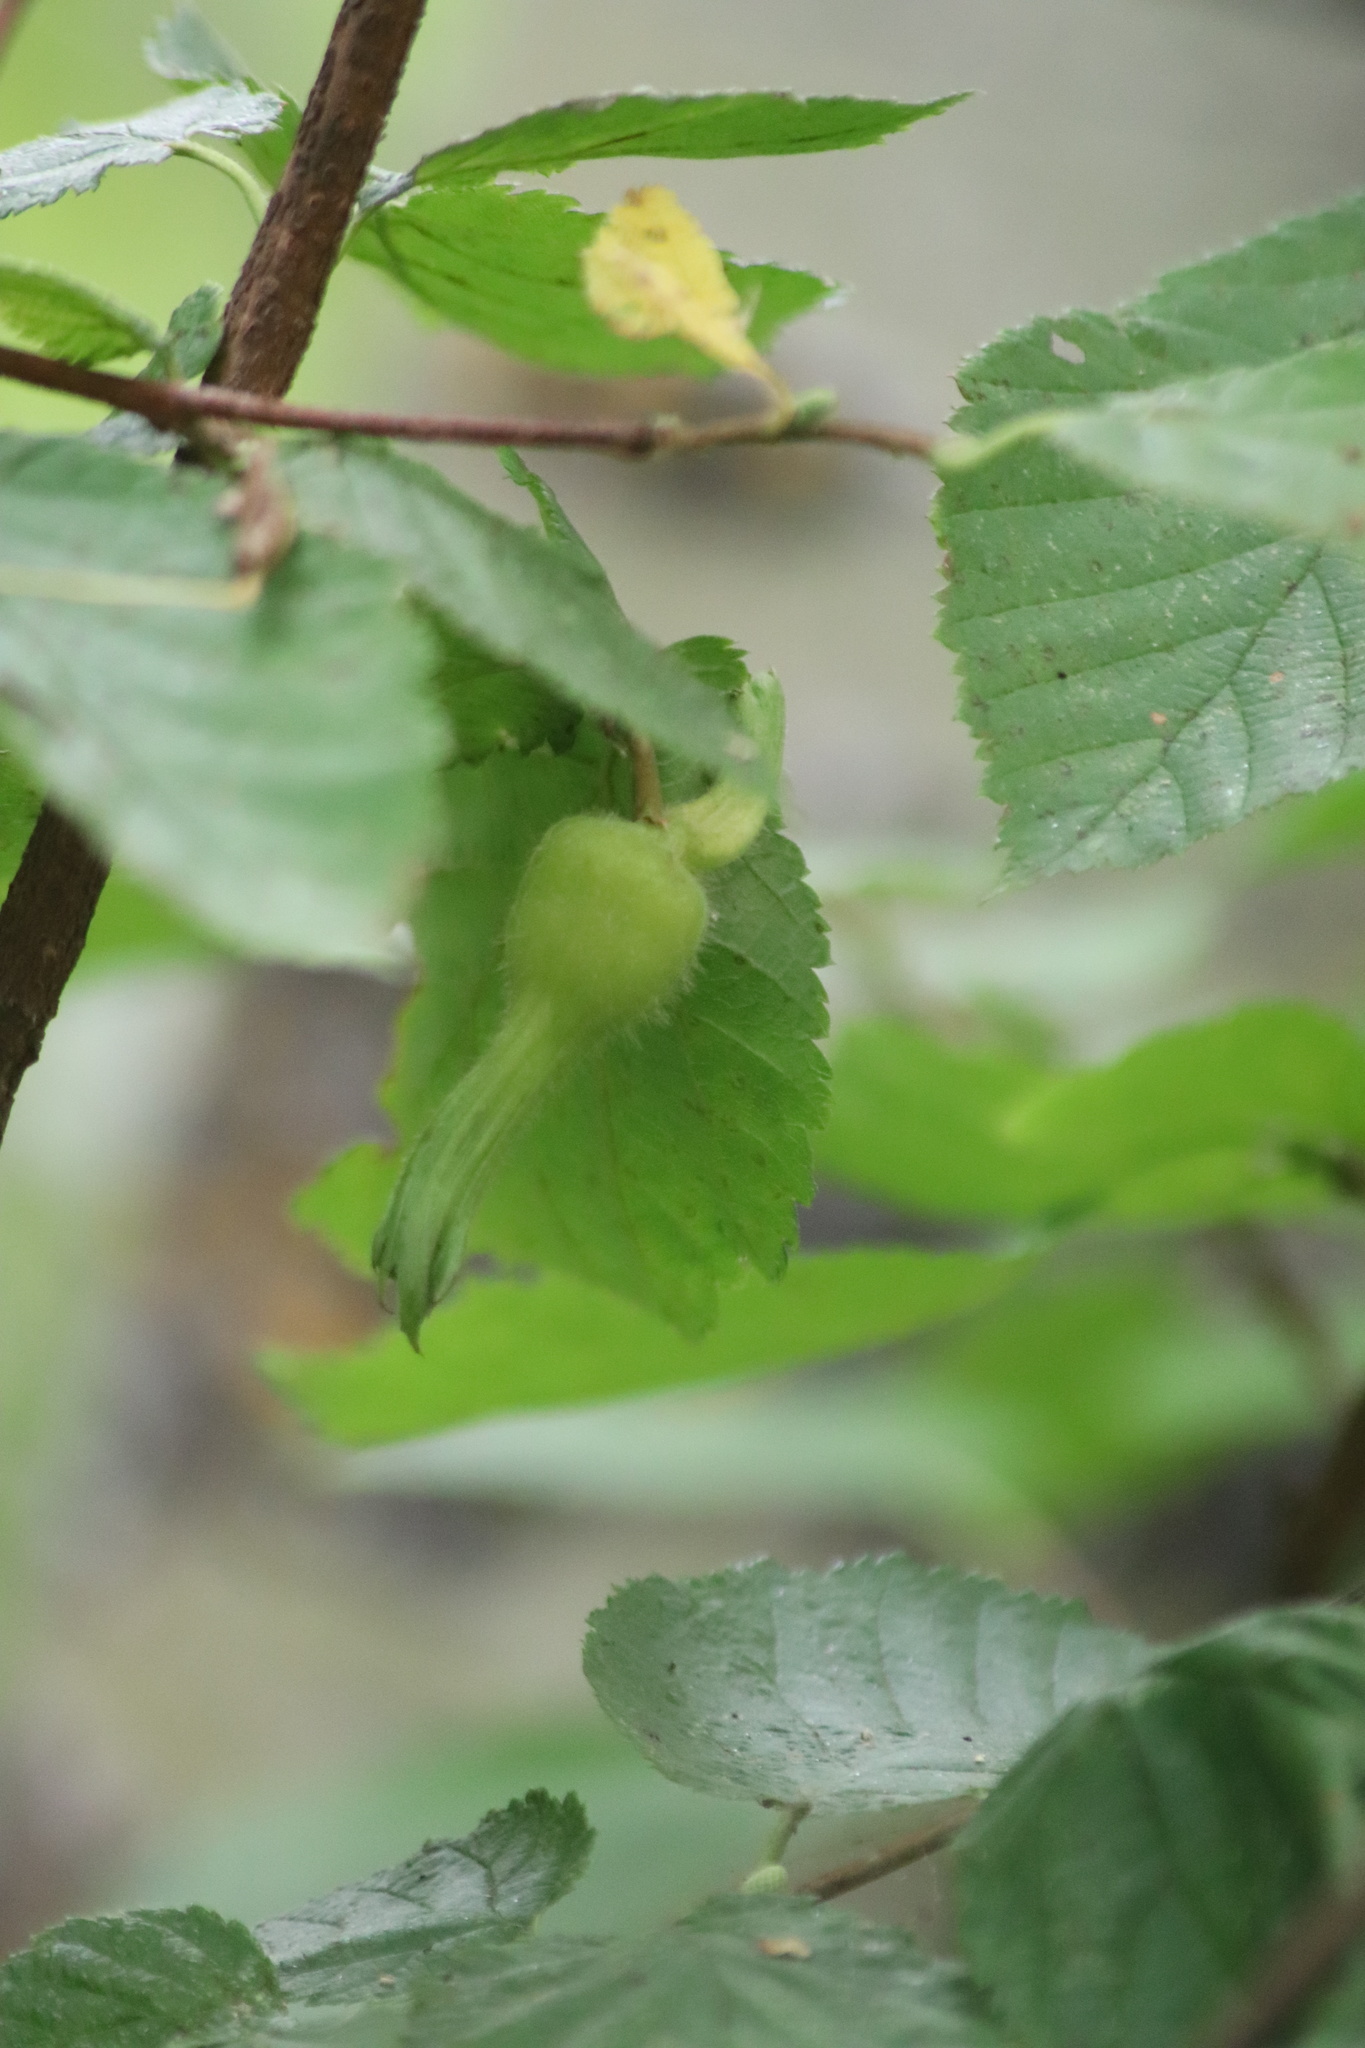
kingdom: Plantae
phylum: Tracheophyta
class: Magnoliopsida
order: Fagales
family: Betulaceae
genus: Corylus
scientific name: Corylus cornuta
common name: Beaked hazel
